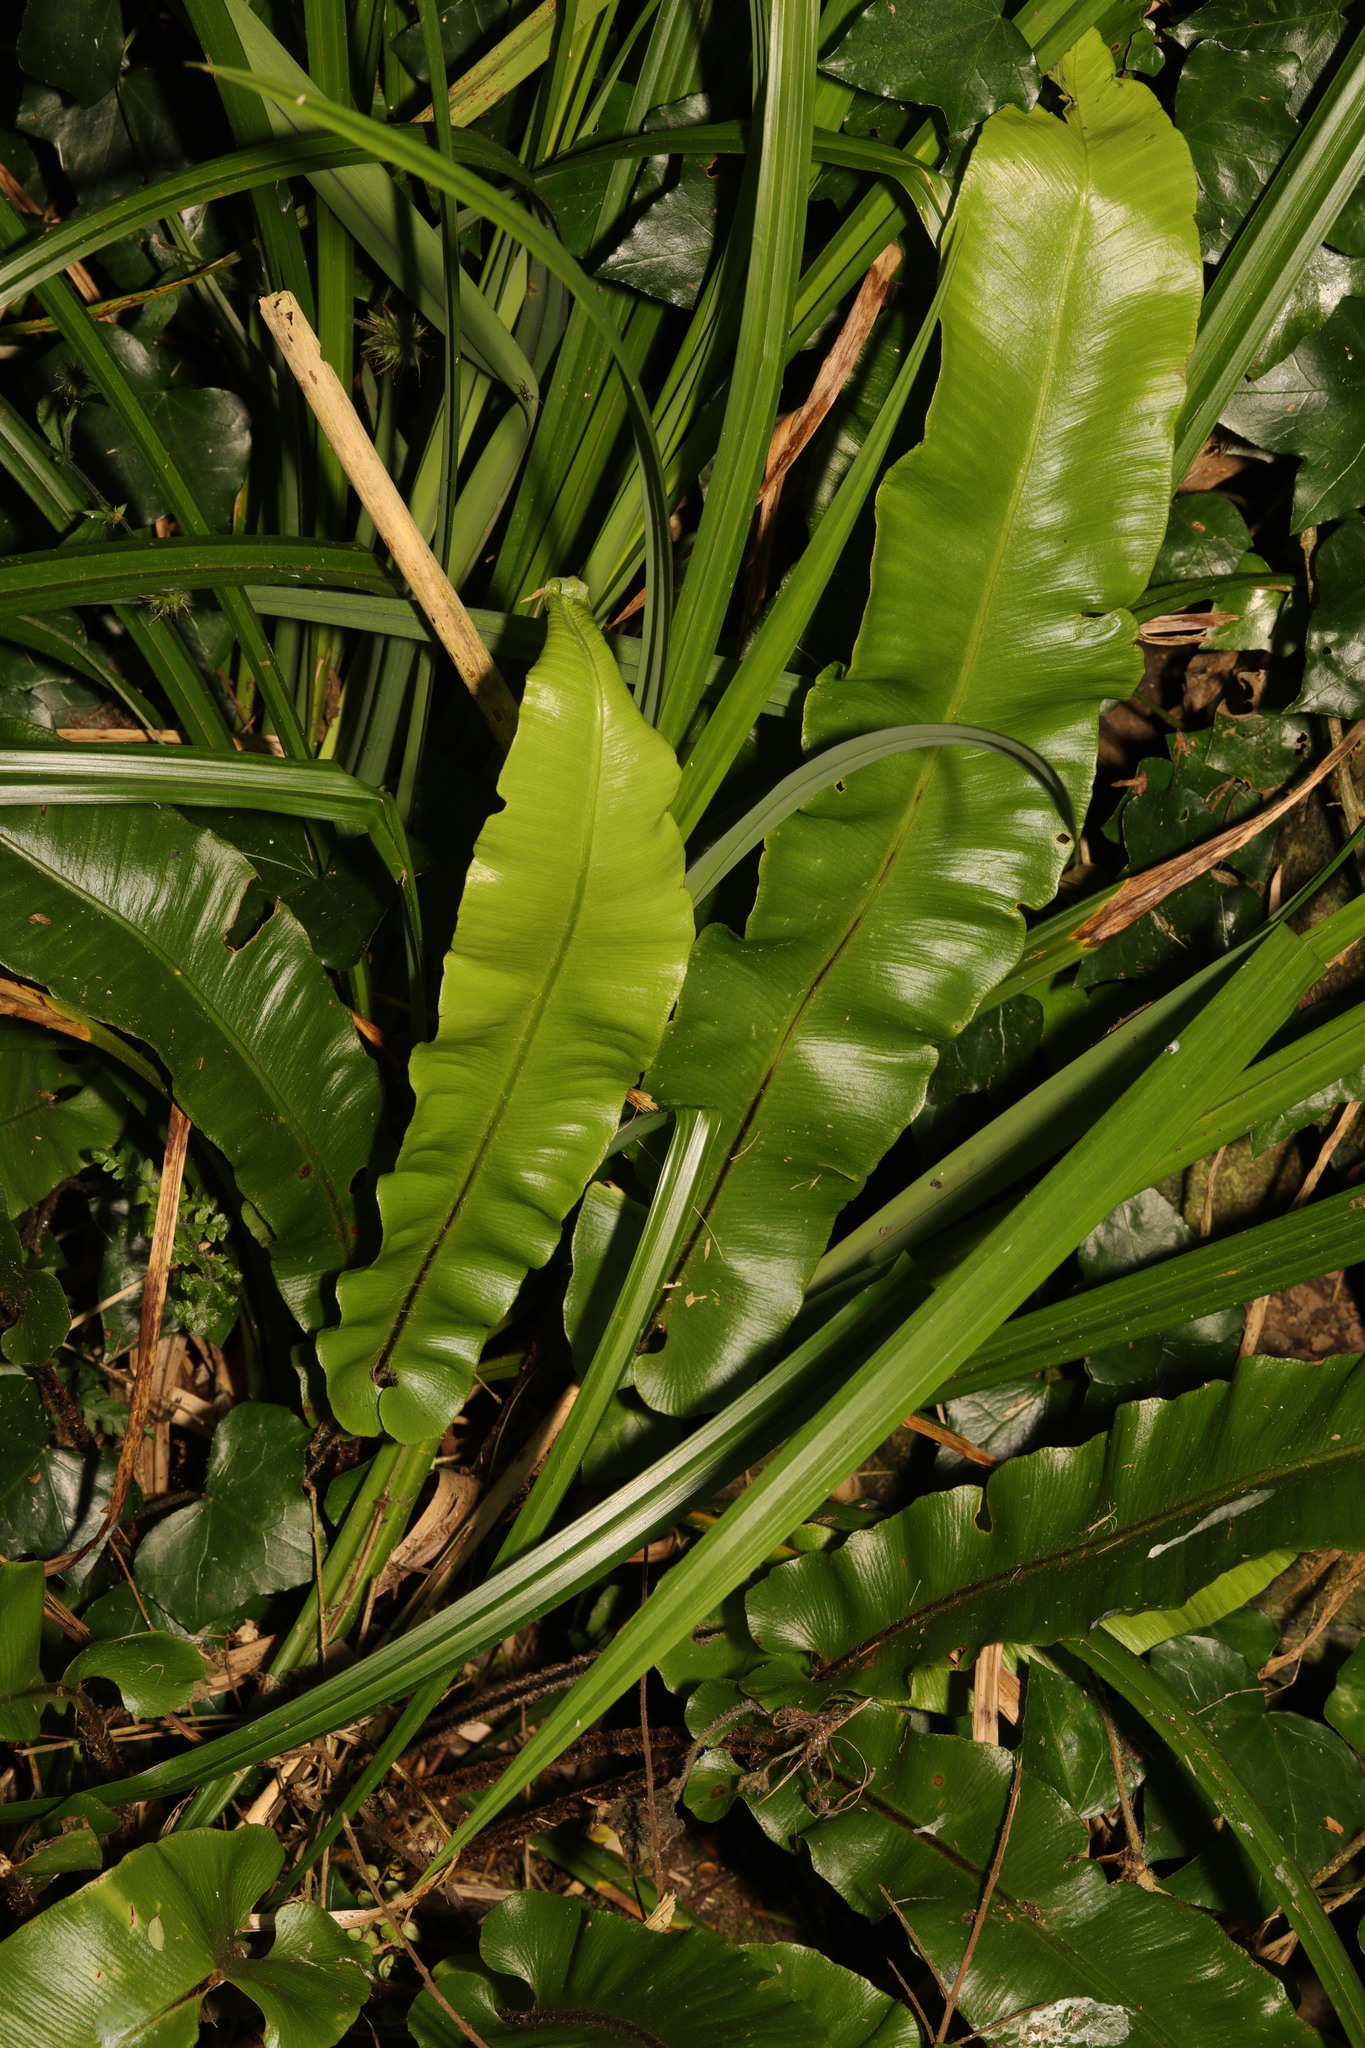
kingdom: Plantae
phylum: Tracheophyta
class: Polypodiopsida
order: Polypodiales
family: Aspleniaceae
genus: Asplenium
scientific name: Asplenium scolopendrium
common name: Hart's-tongue fern
